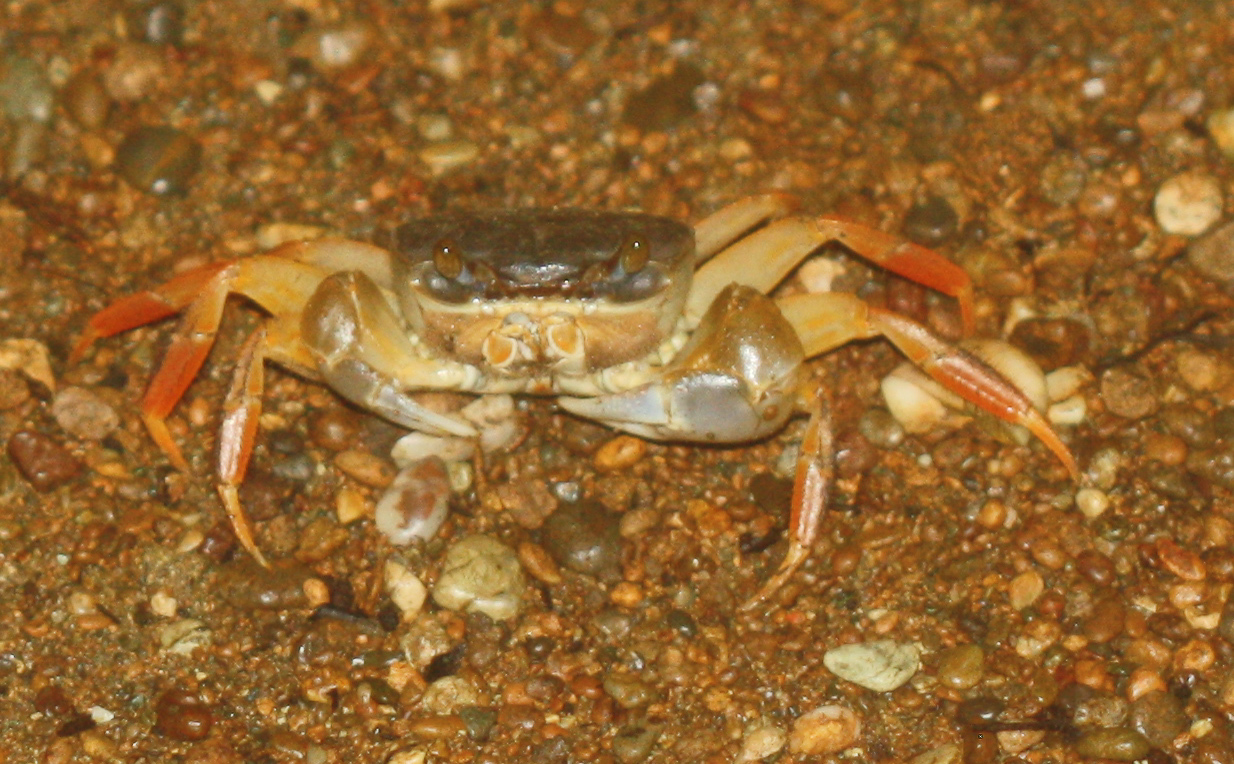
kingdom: Animalia
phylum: Arthropoda
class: Malacostraca
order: Decapoda
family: Gecarcinidae
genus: Cardisoma
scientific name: Cardisoma crassum
